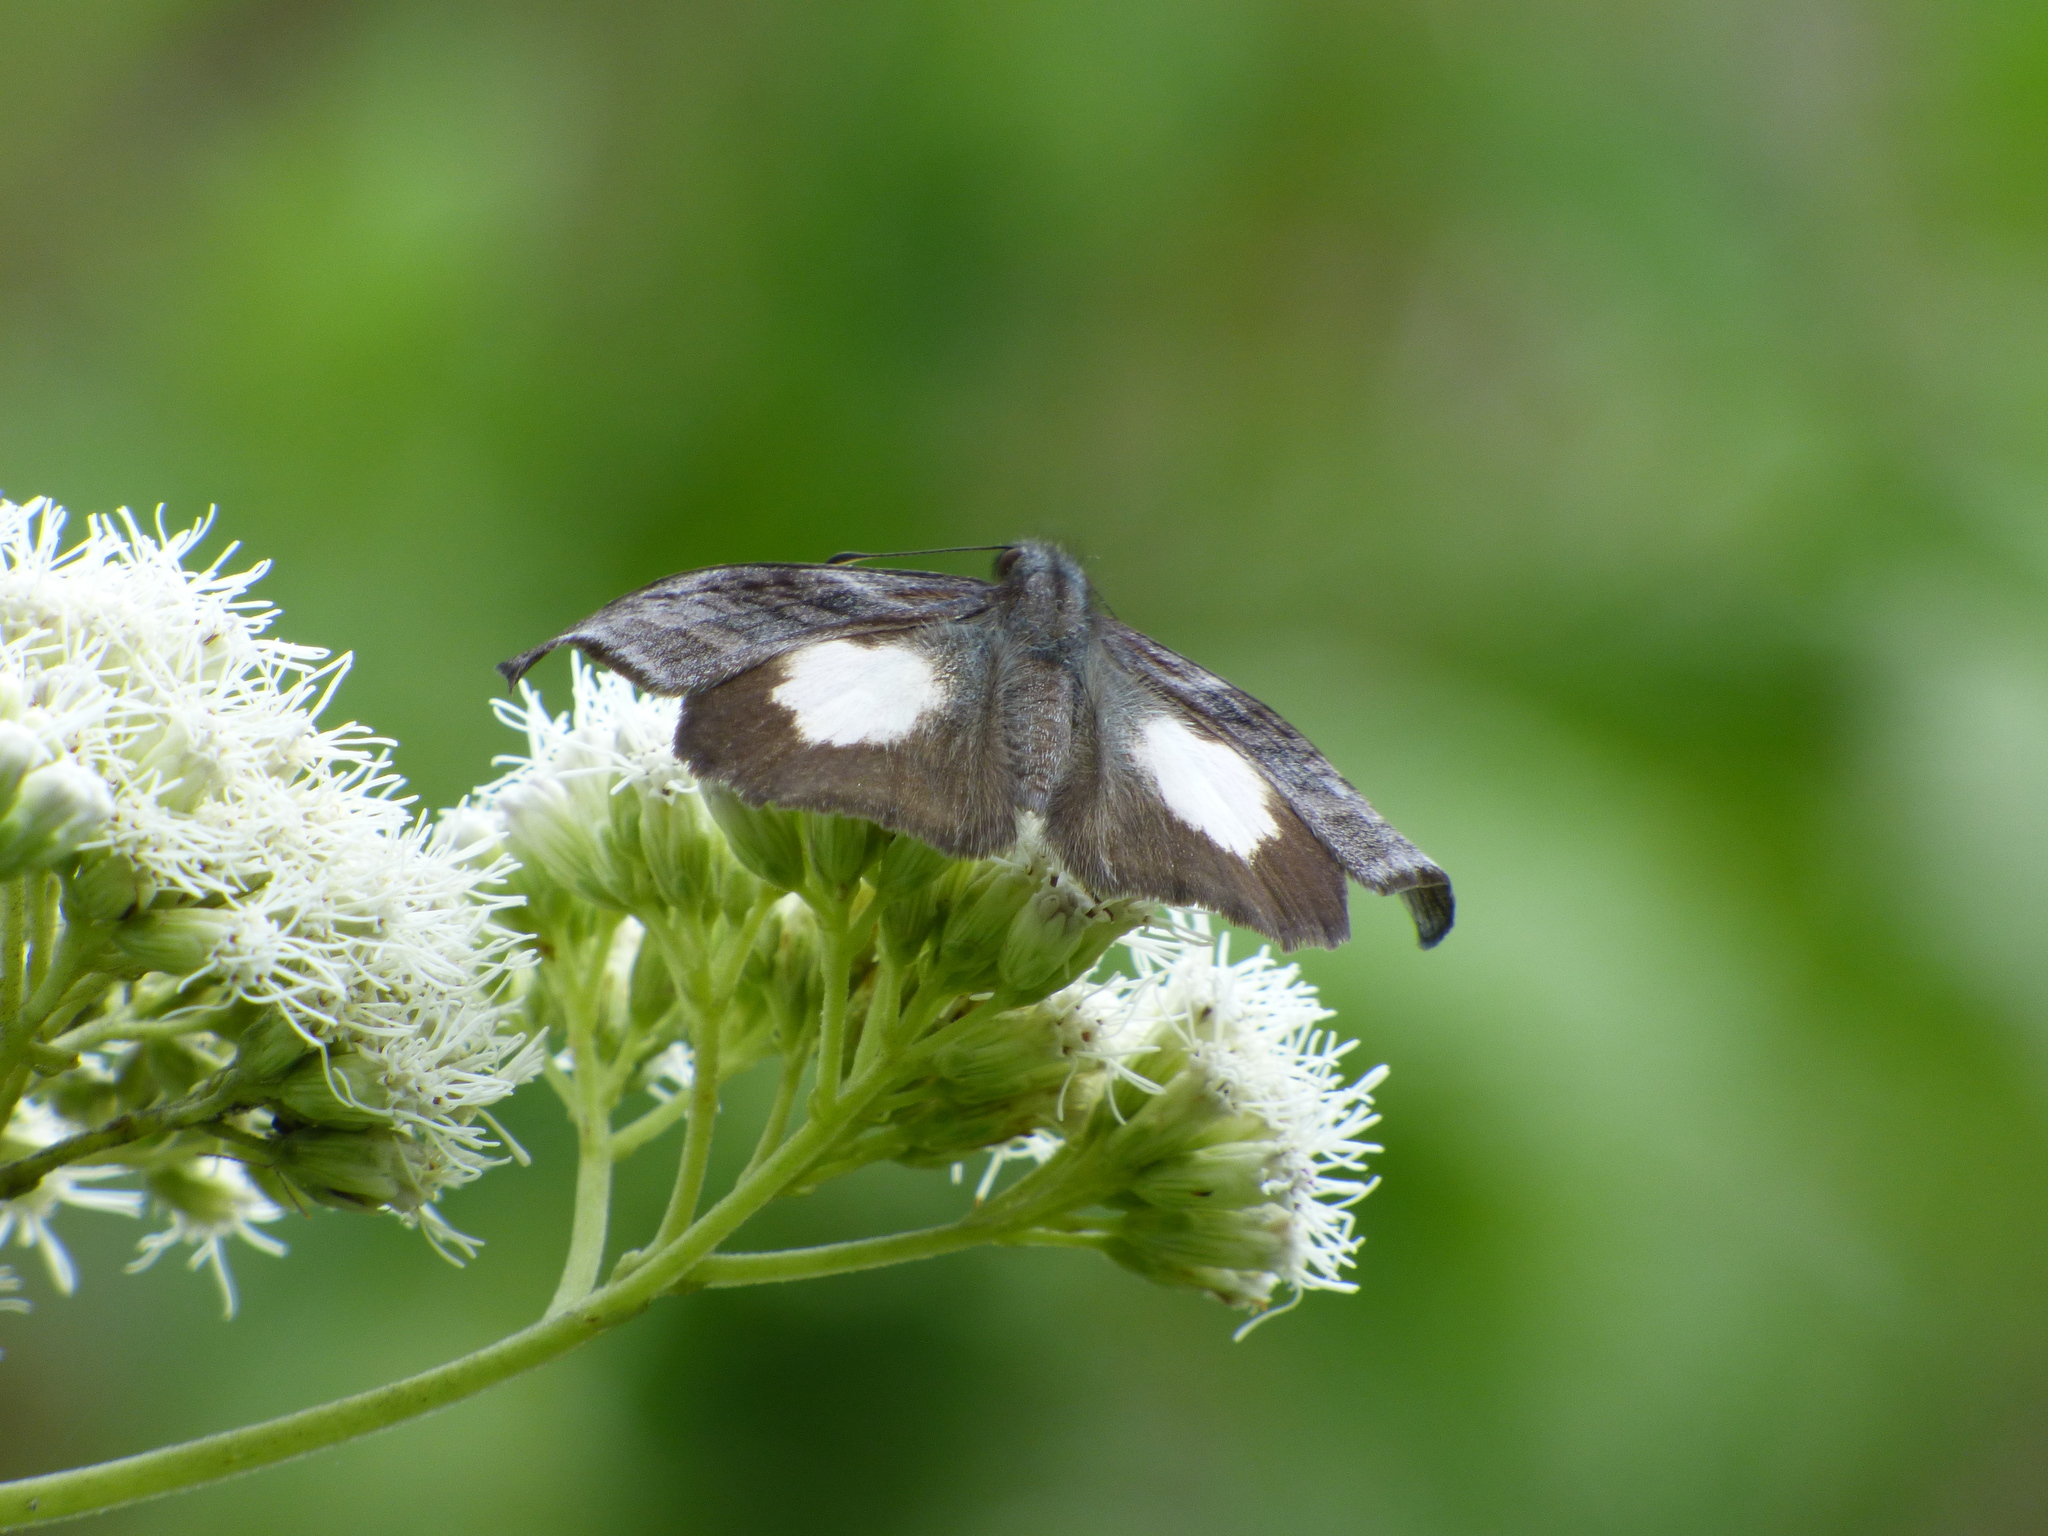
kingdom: Animalia
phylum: Arthropoda
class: Insecta
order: Lepidoptera
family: Hesperiidae
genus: Theagenes
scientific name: Theagenes albiplaga
